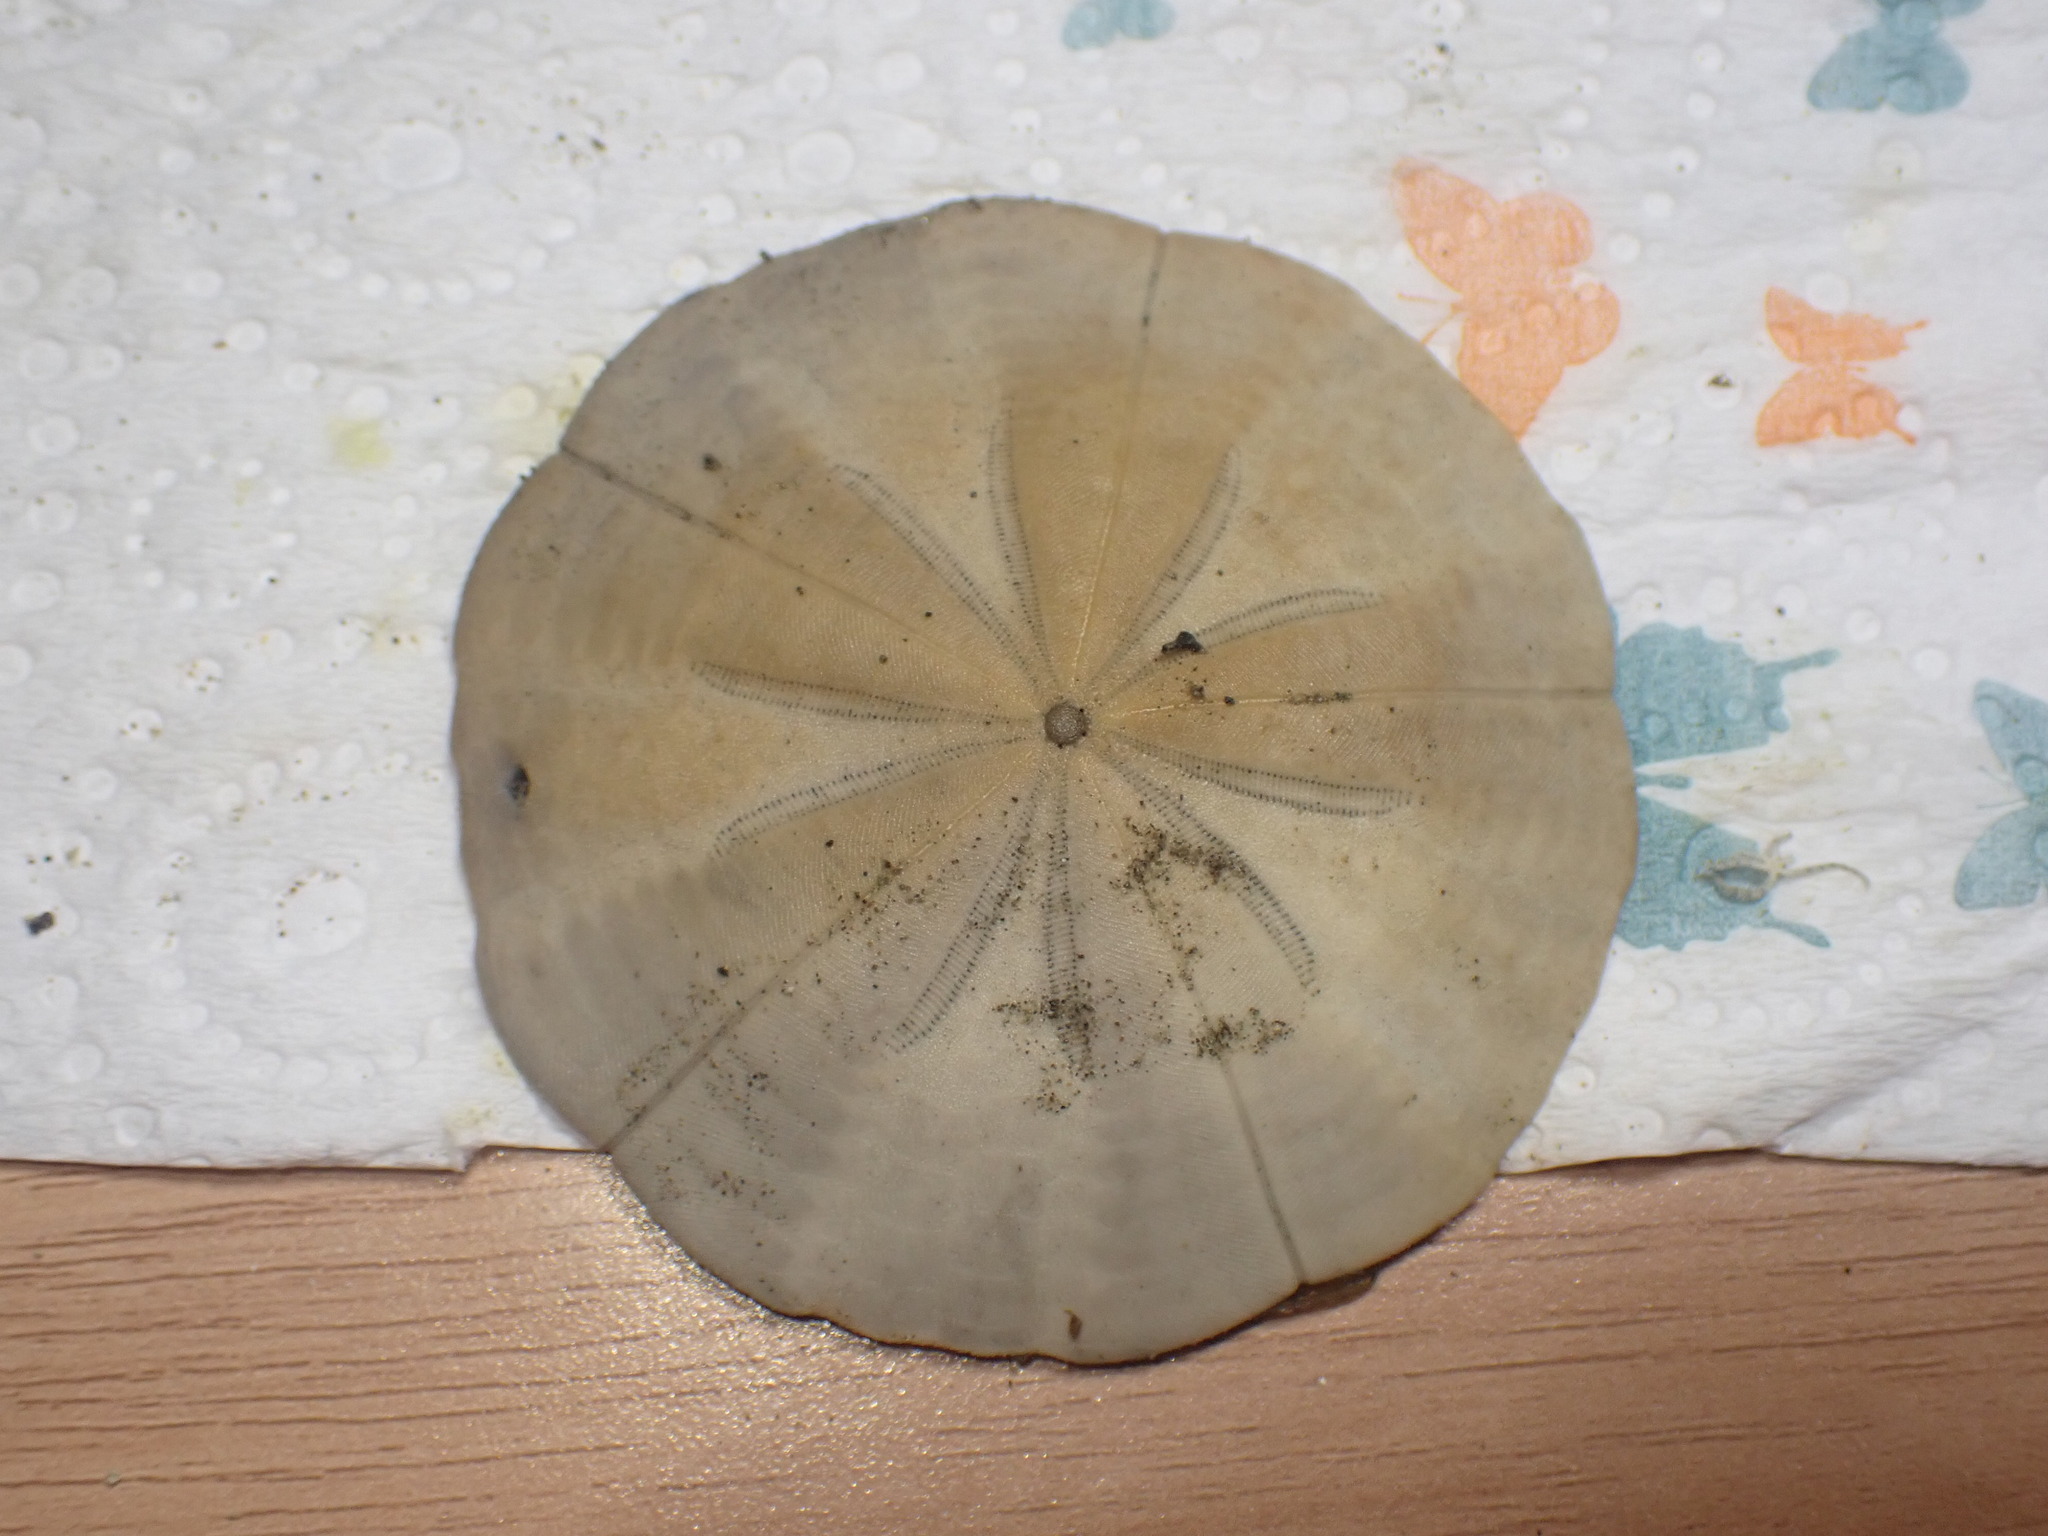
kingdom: Animalia
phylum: Echinodermata
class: Echinoidea
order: Clypeasteroida
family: Clypeasteridae
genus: Fellaster
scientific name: Fellaster zelandiae
